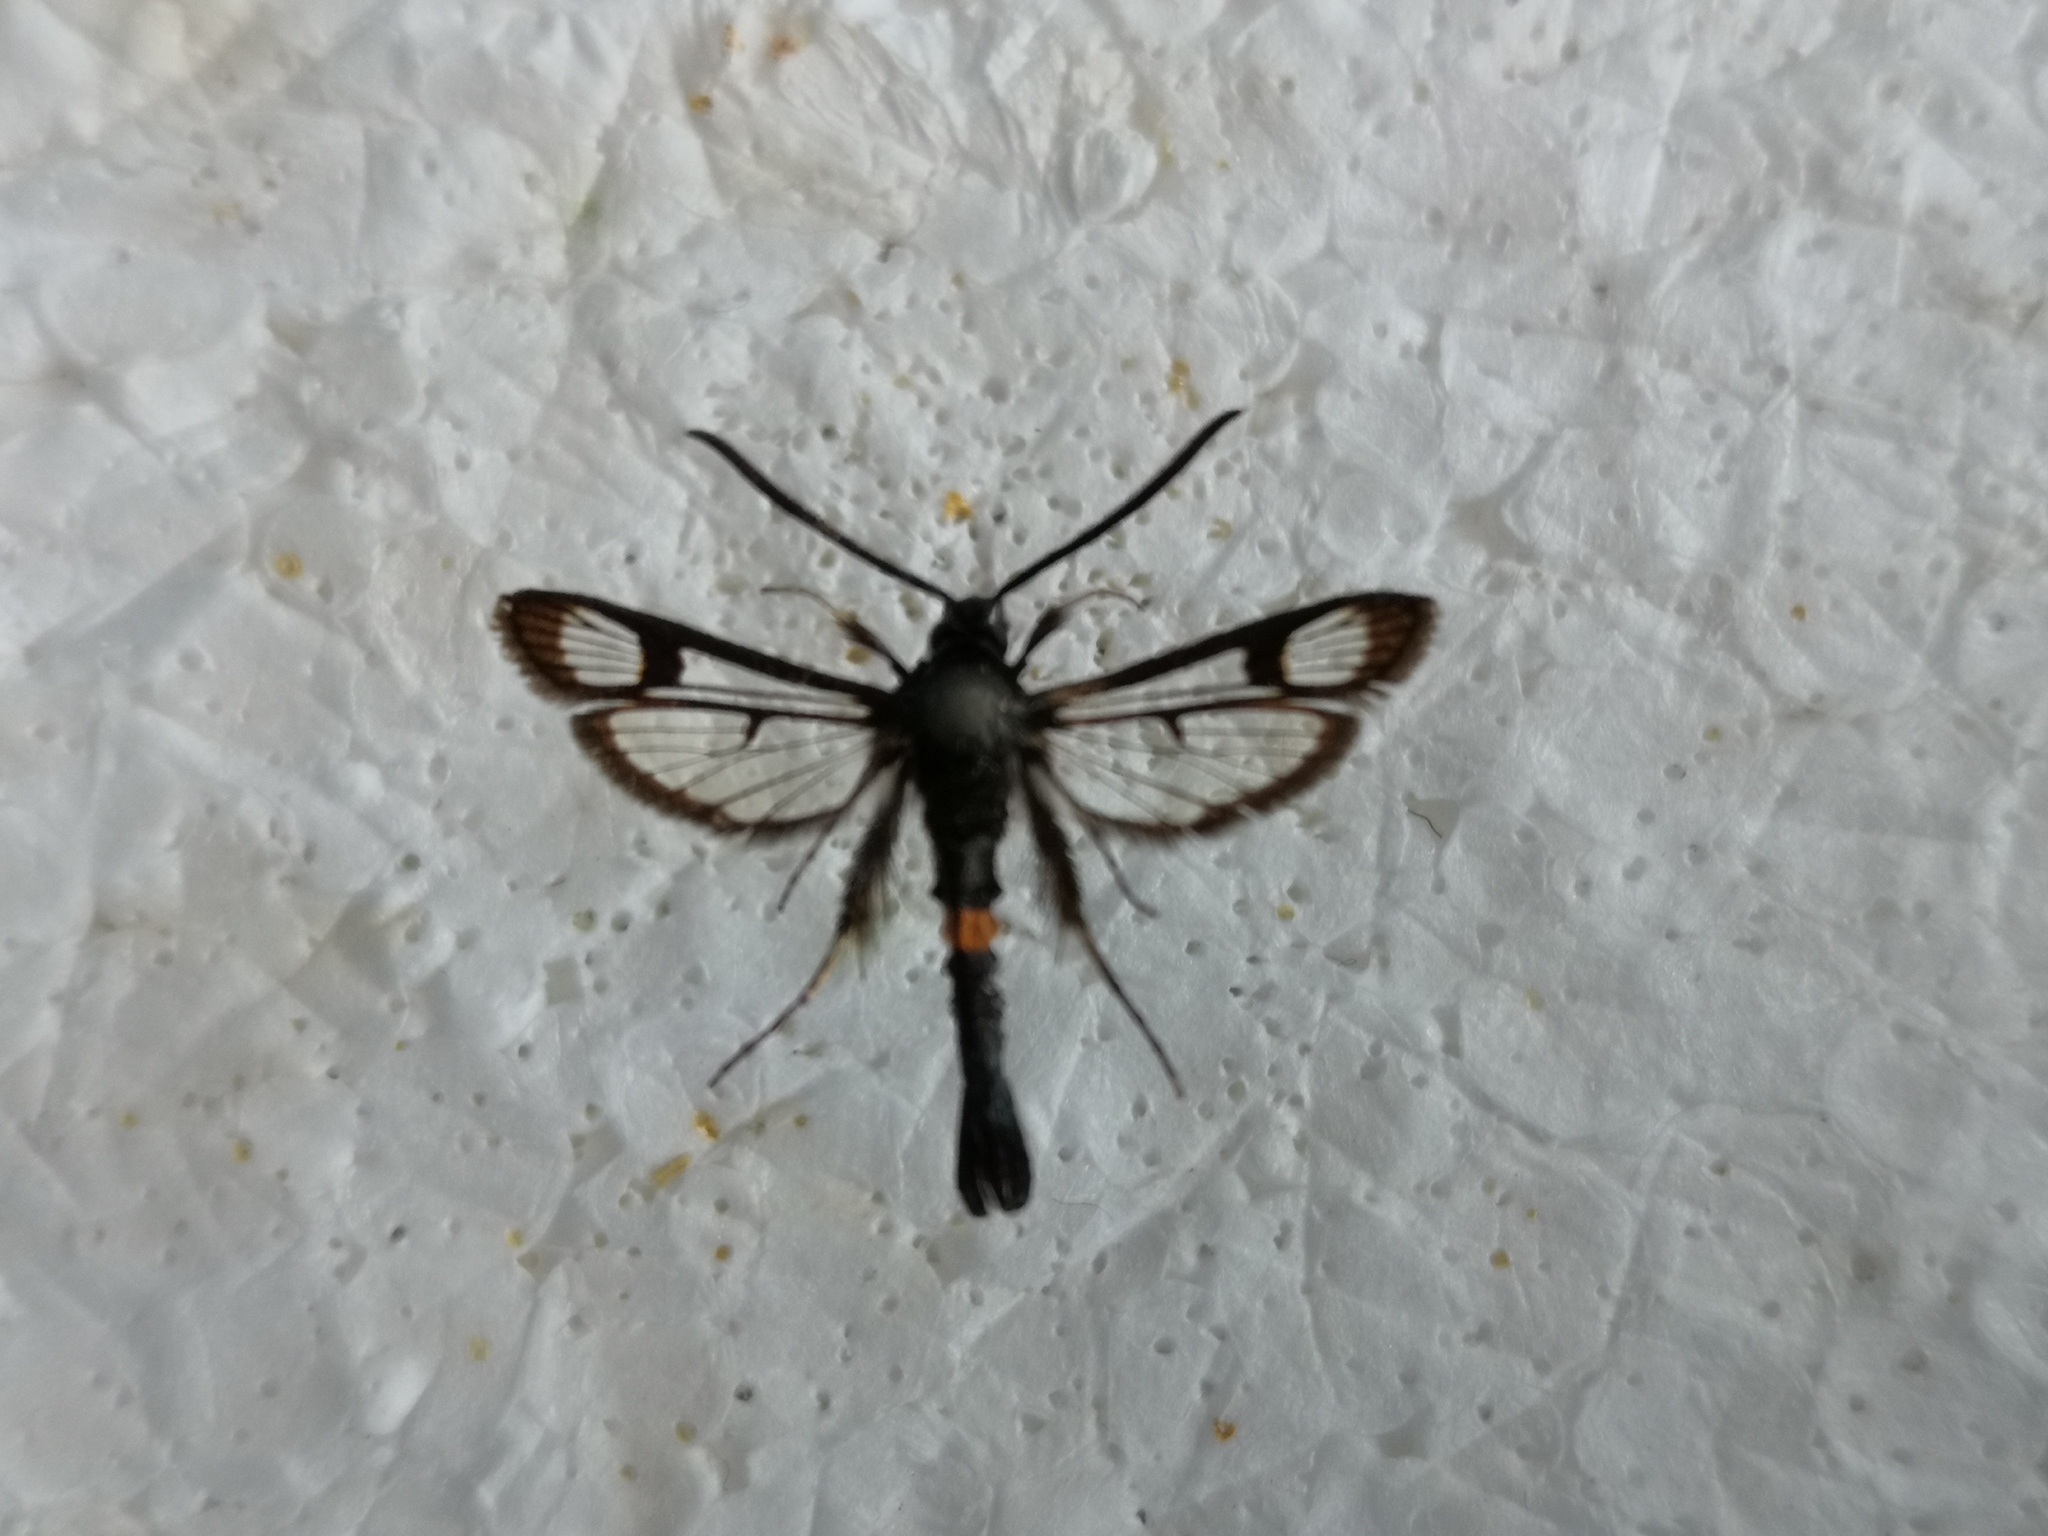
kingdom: Animalia
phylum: Arthropoda
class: Insecta
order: Lepidoptera
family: Sesiidae
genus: Synanthedon
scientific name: Synanthedon myopaeformis
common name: Red-belted clearwing
